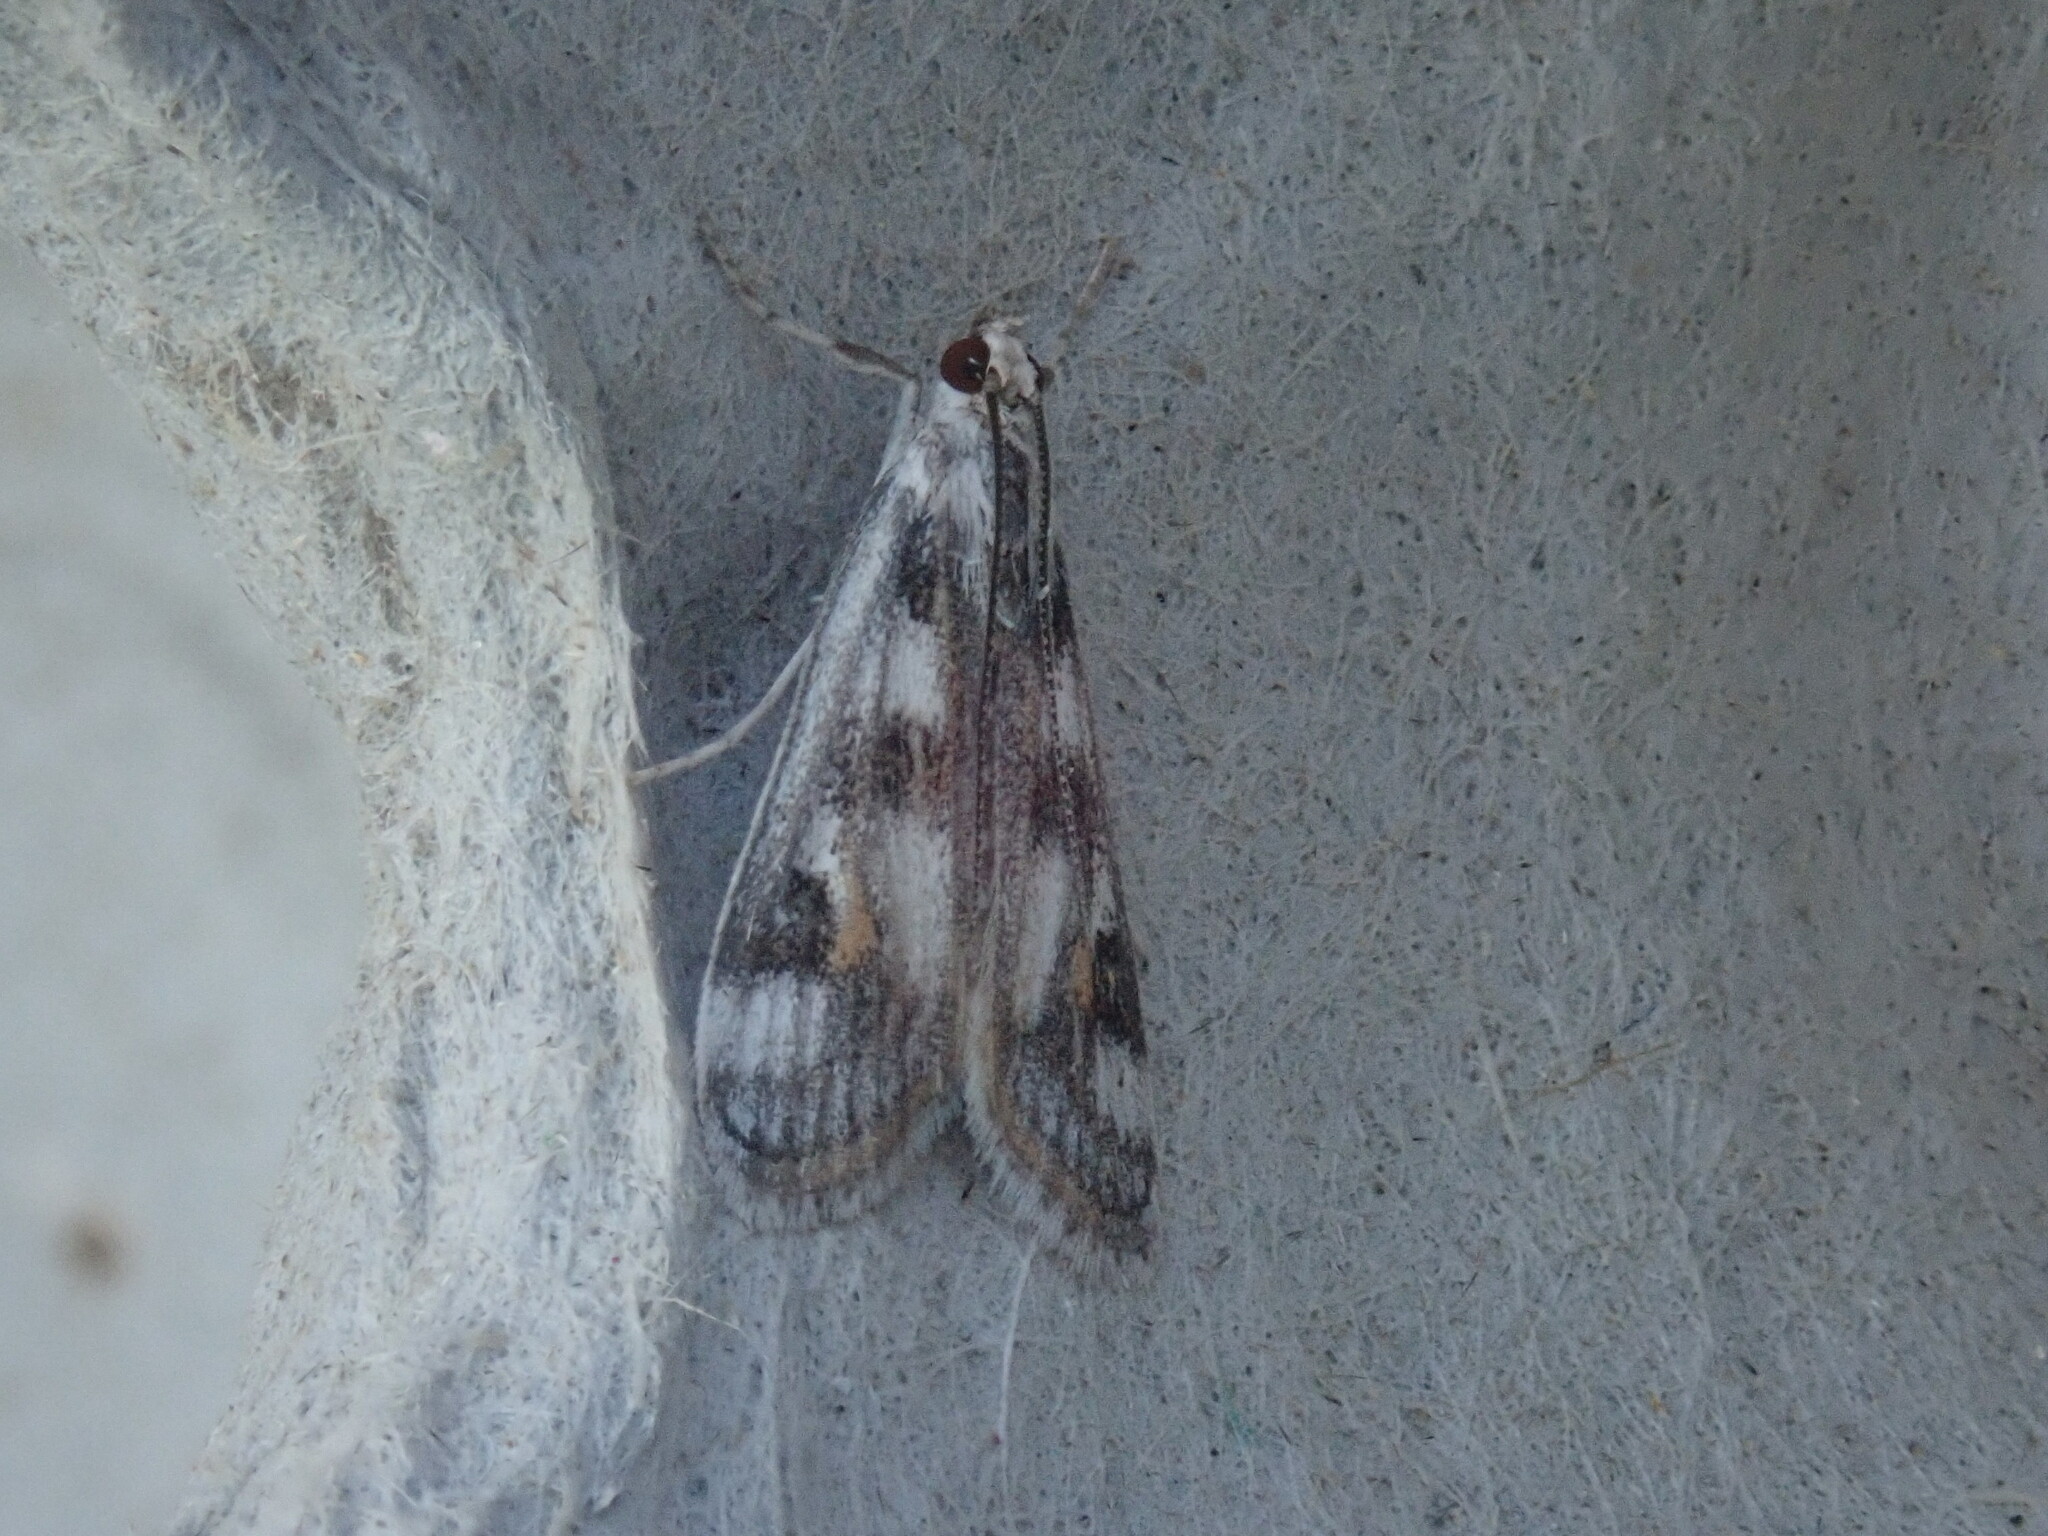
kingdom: Animalia
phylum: Arthropoda
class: Insecta
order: Lepidoptera
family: Crambidae
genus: Parapoynx
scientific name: Parapoynx maculalis
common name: Polymorphic pondweed moth
